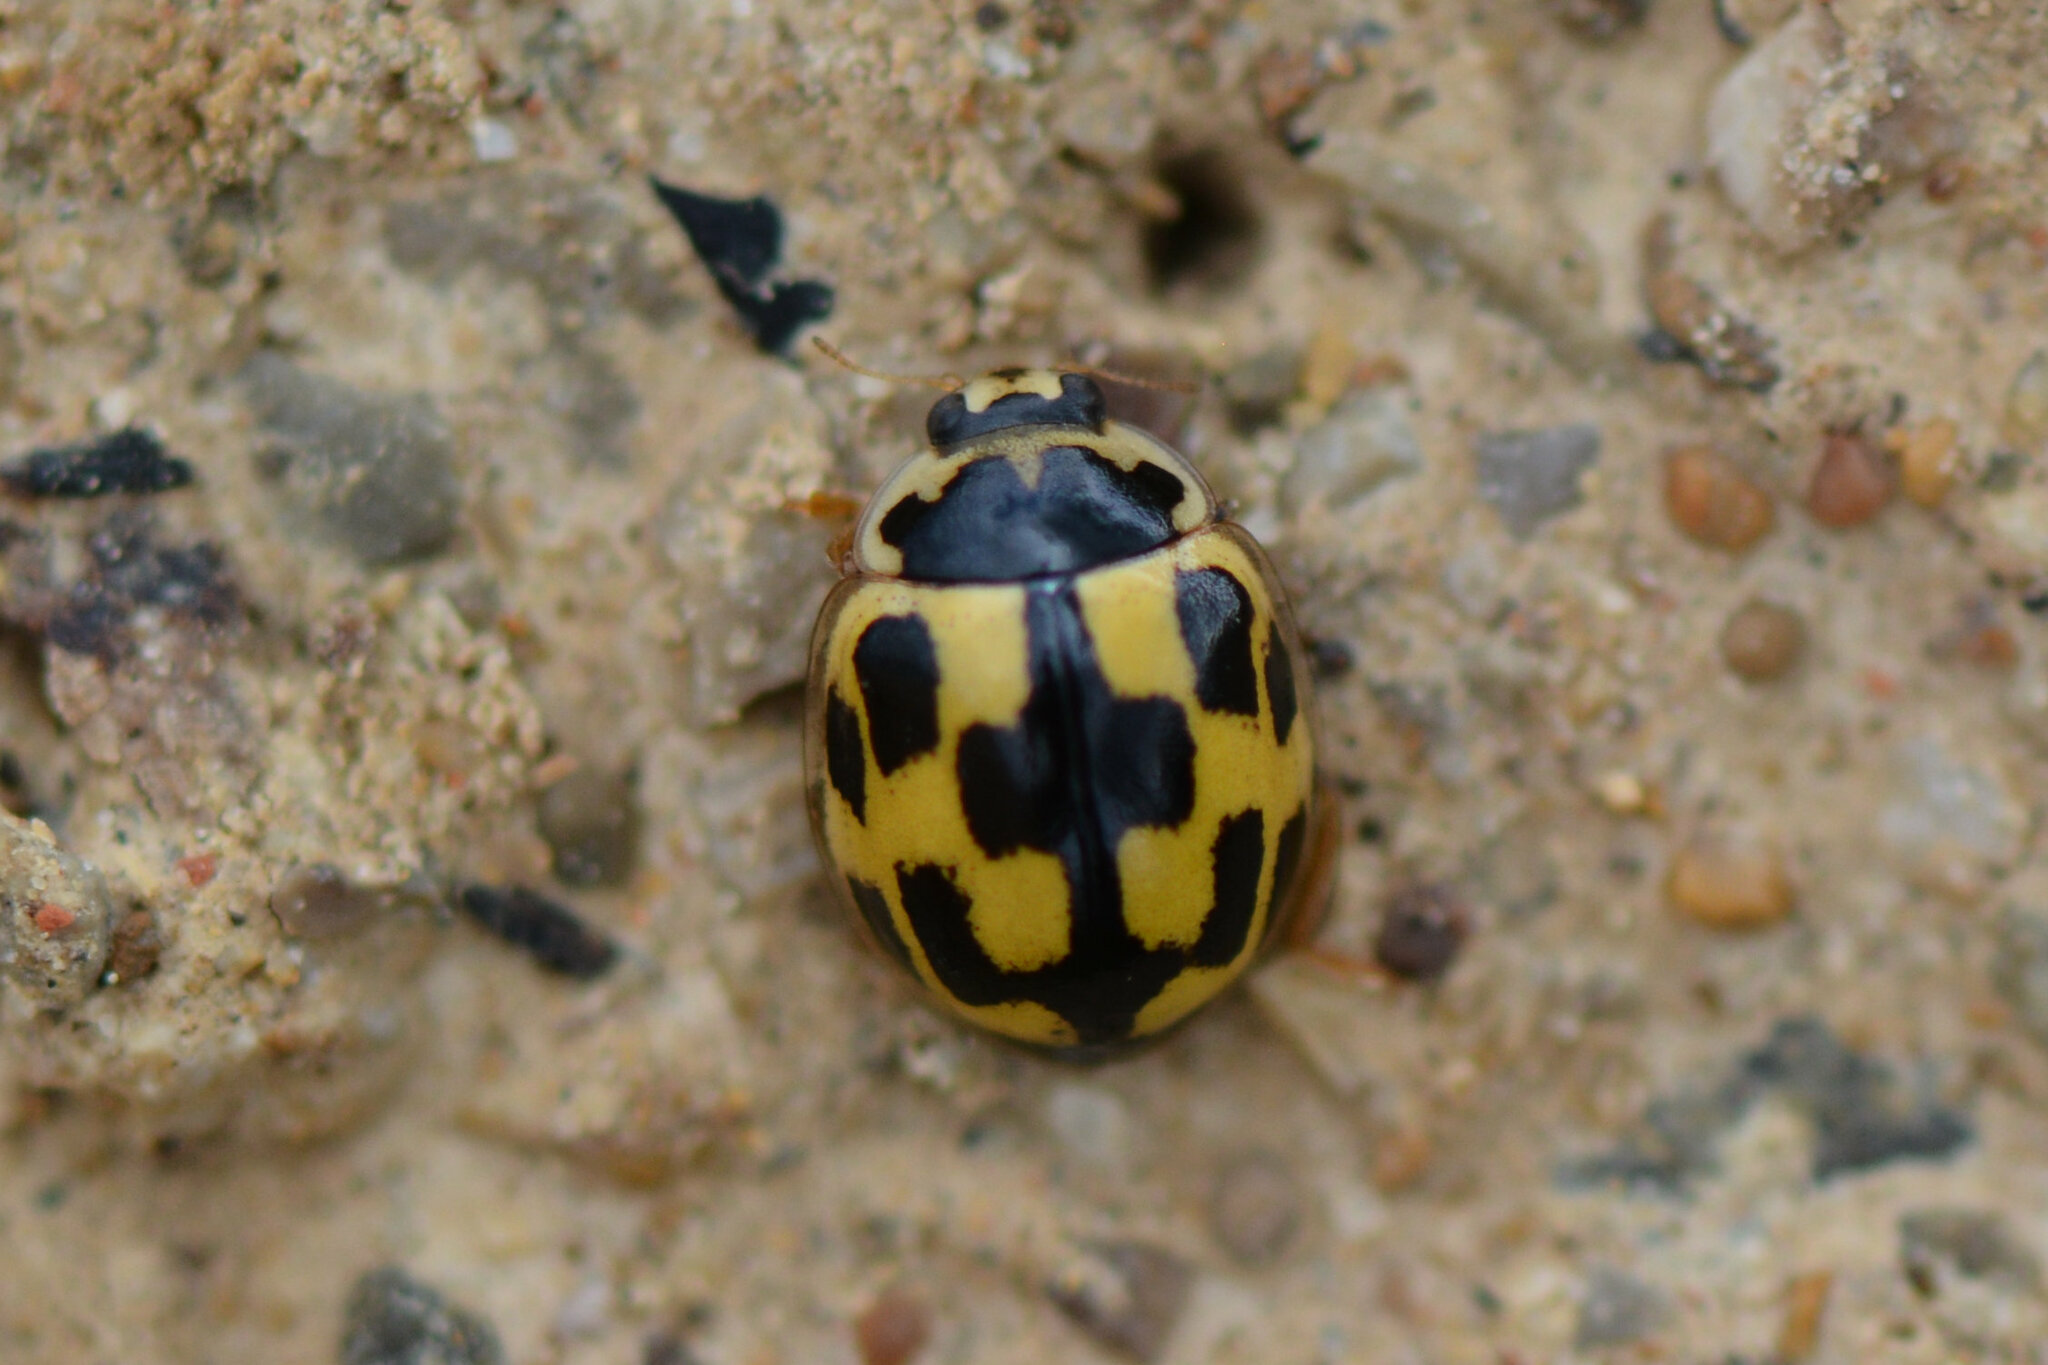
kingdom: Animalia
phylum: Arthropoda
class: Insecta
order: Coleoptera
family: Coccinellidae
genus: Propylaea
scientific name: Propylaea quatuordecimpunctata
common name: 14-spotted ladybird beetle
